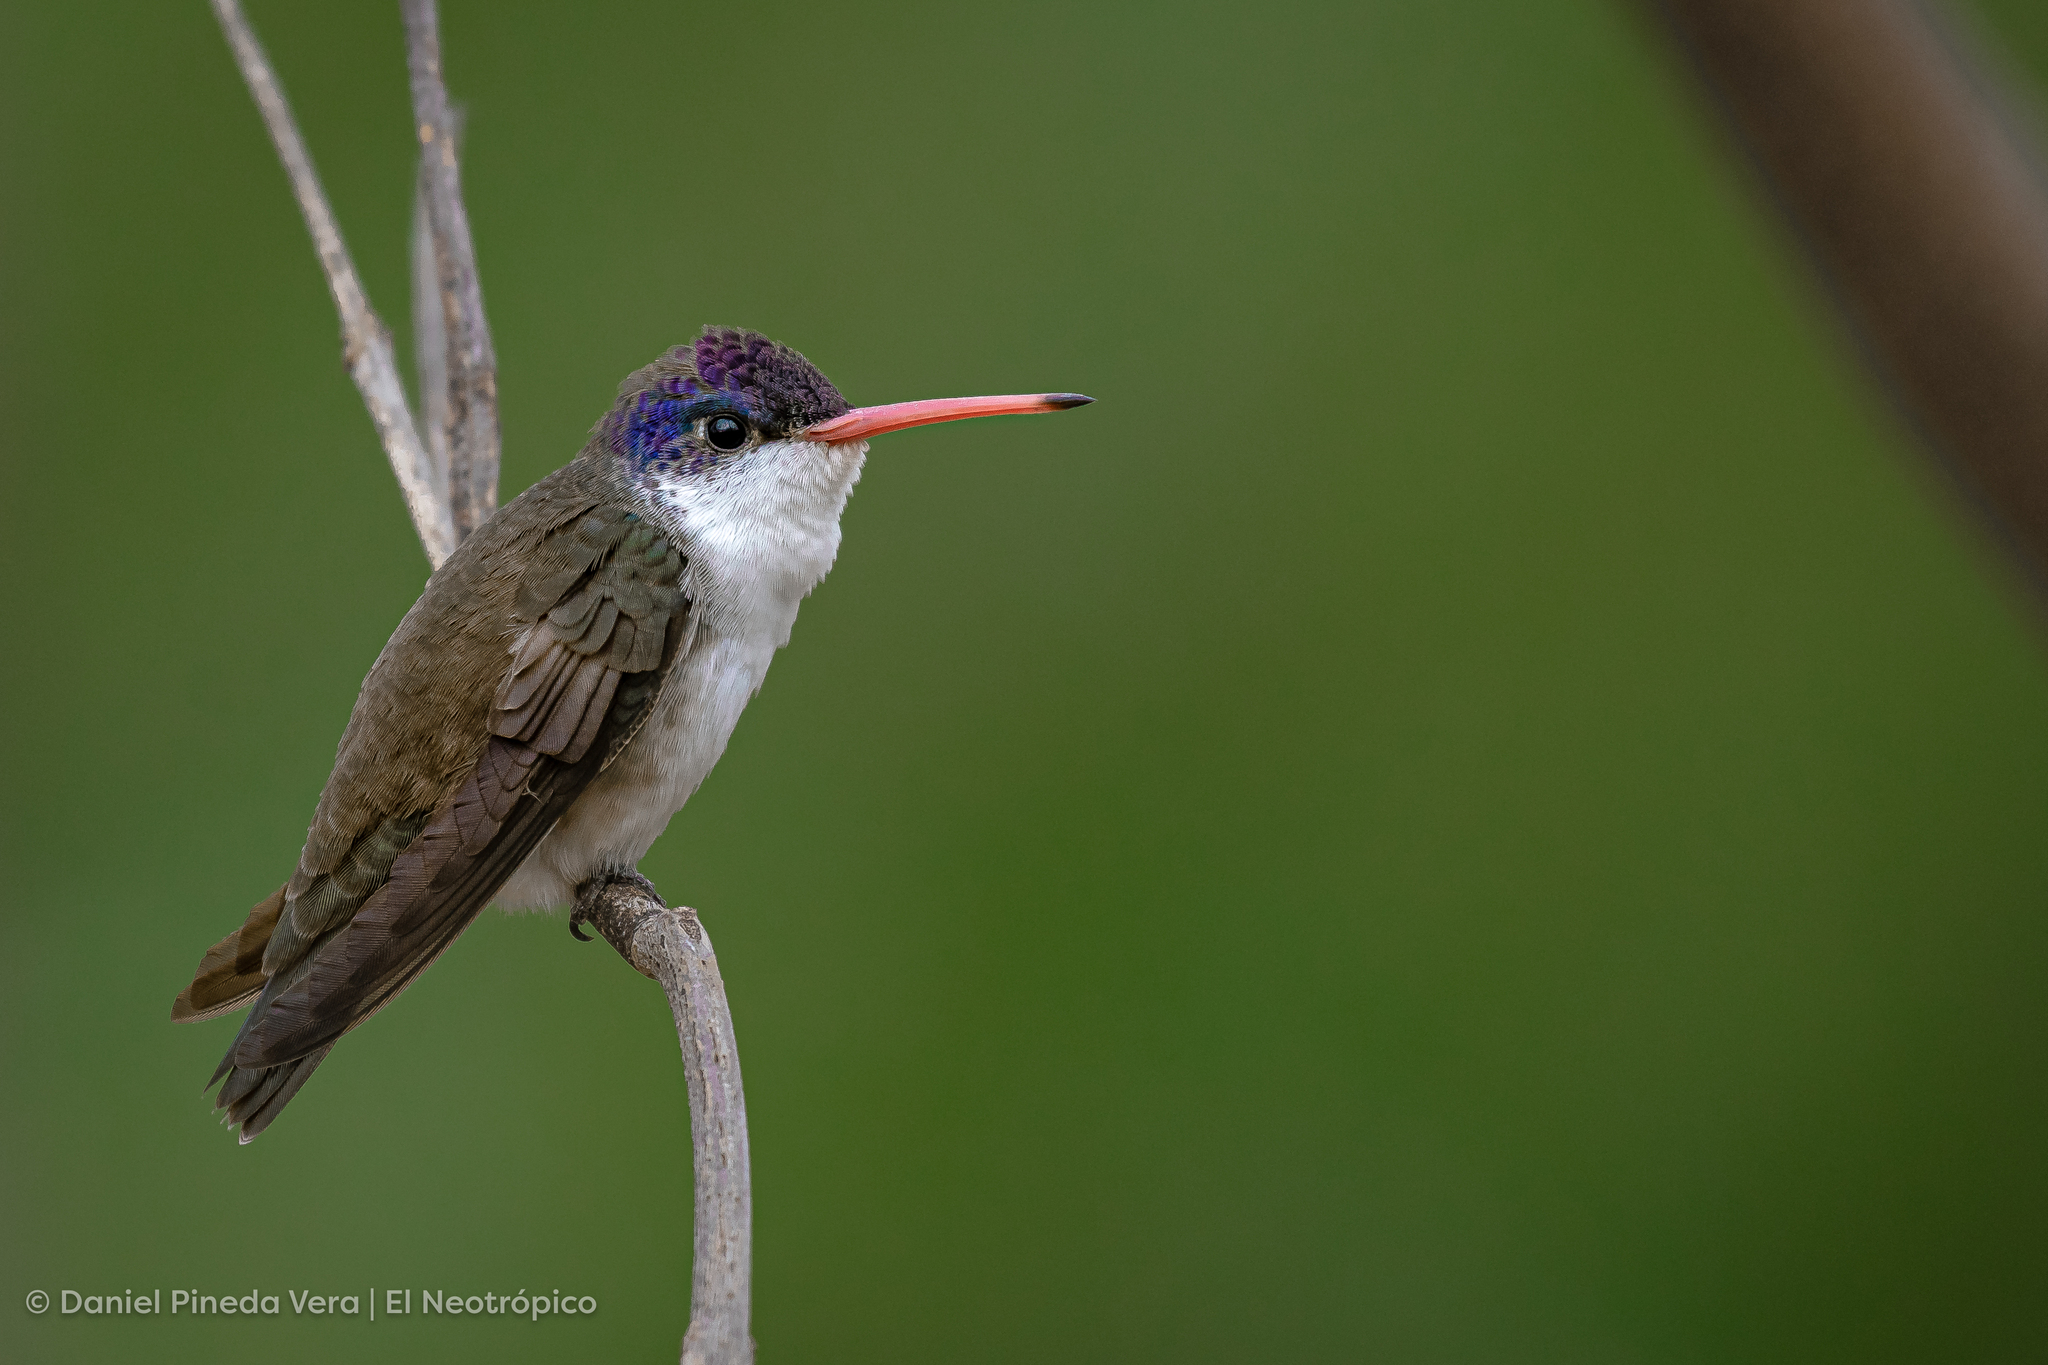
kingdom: Animalia
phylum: Chordata
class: Aves
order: Apodiformes
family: Trochilidae
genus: Leucolia
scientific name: Leucolia violiceps
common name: Violet-crowned hummingbird
